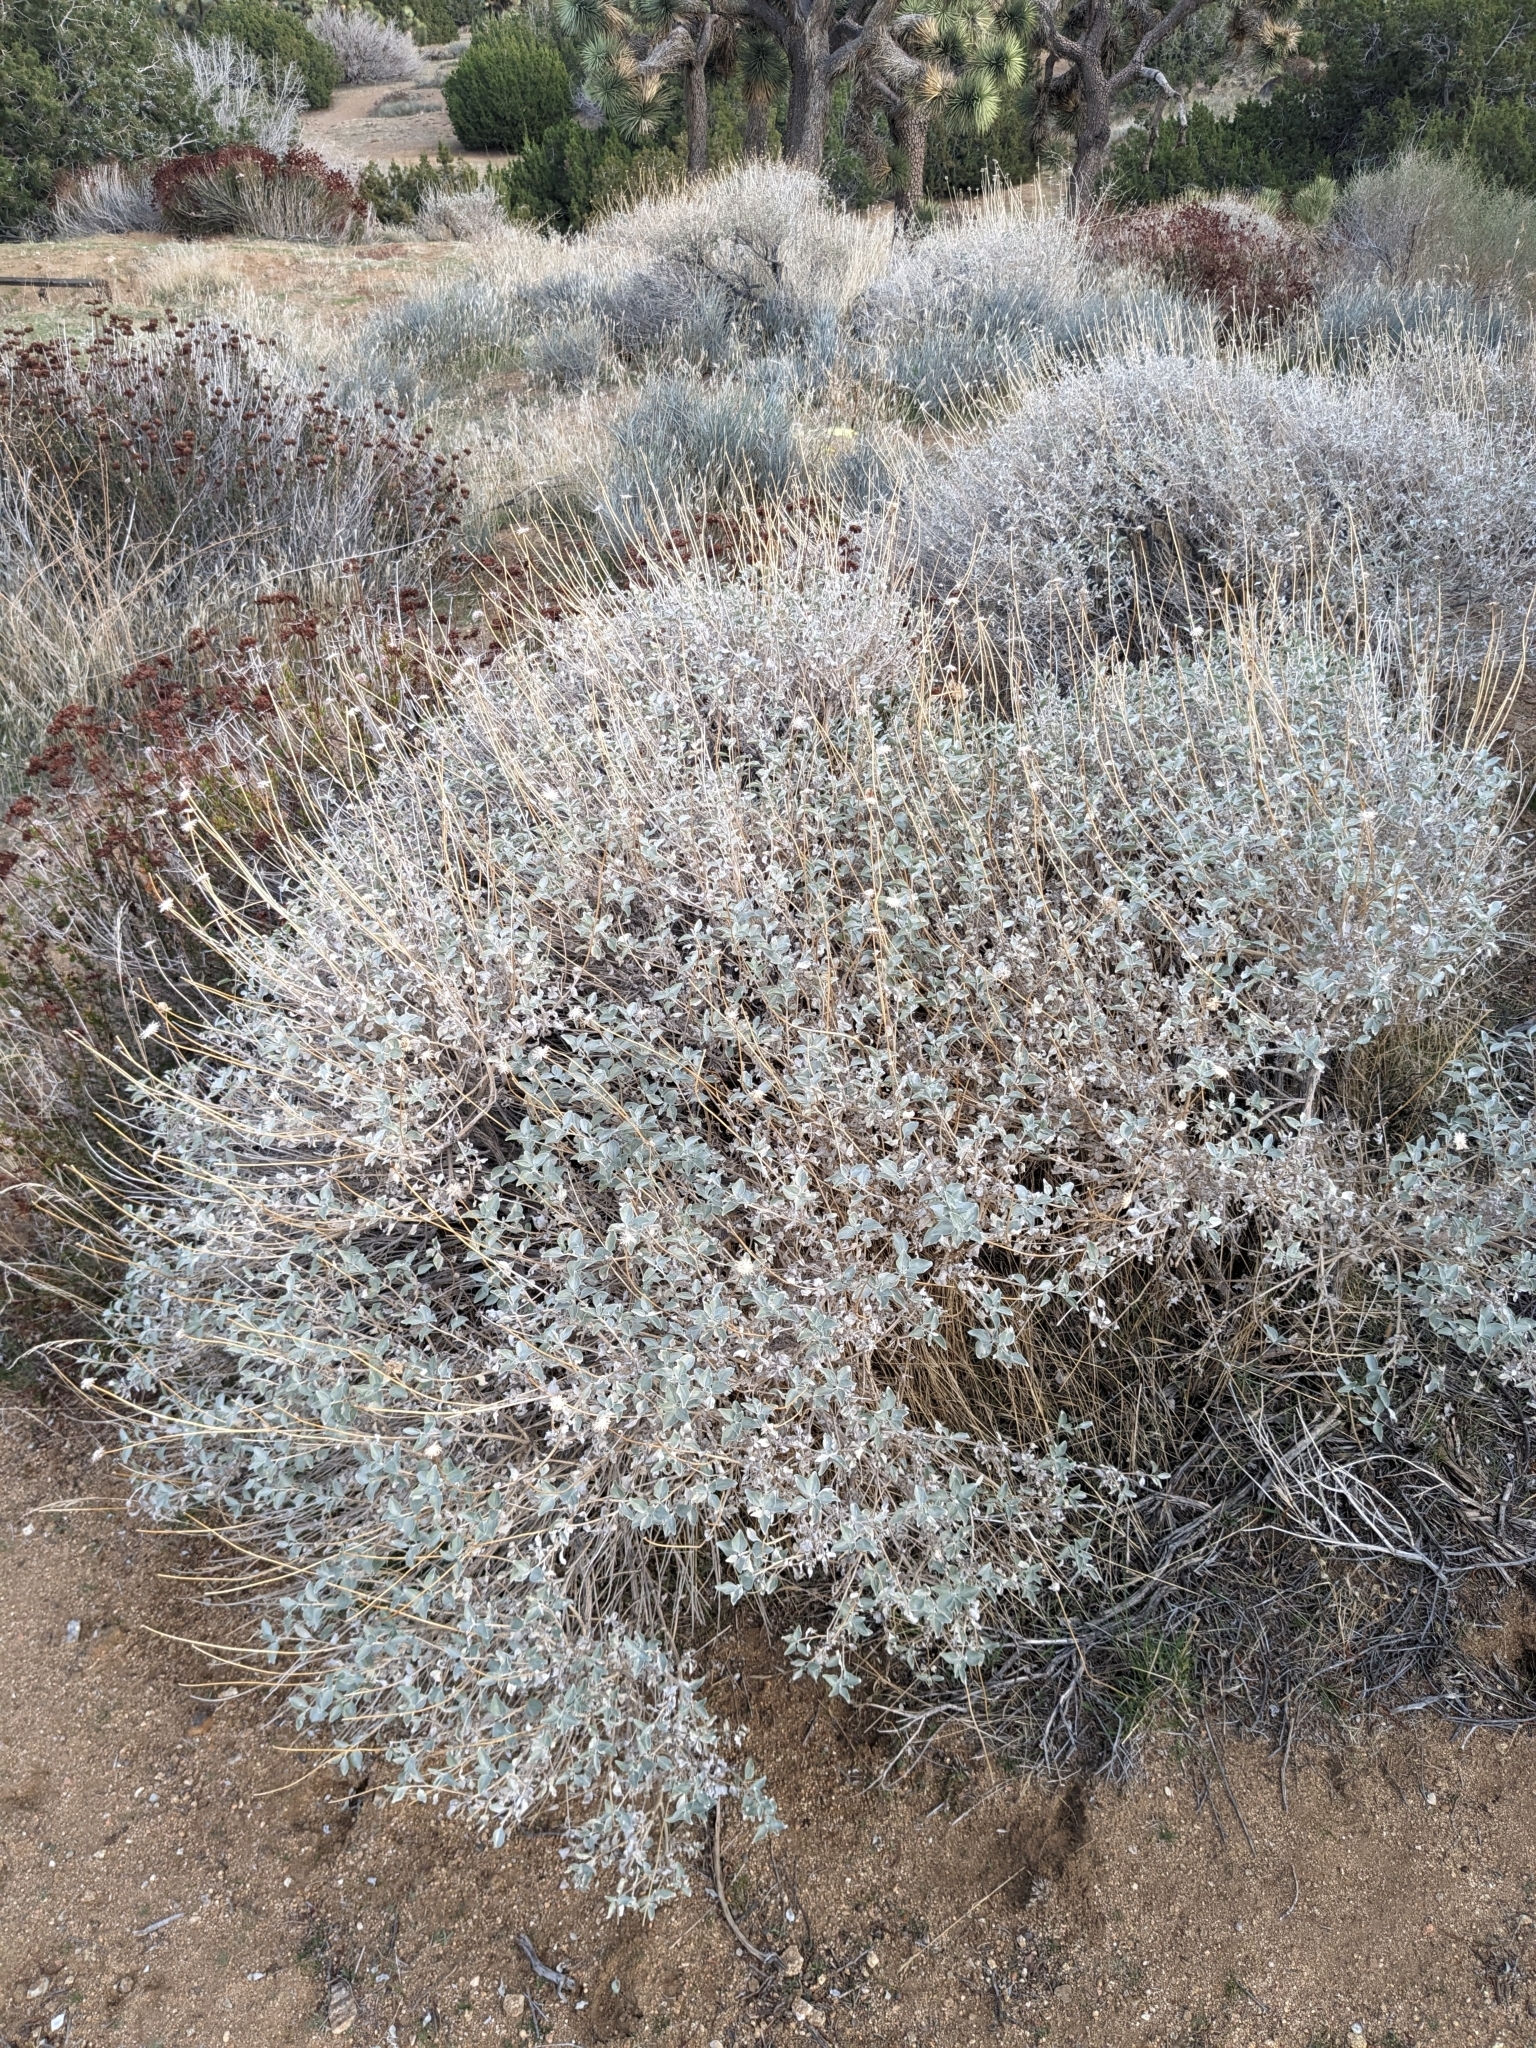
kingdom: Plantae
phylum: Tracheophyta
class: Magnoliopsida
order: Asterales
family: Asteraceae
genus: Encelia
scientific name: Encelia actoni
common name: Acton encelia
